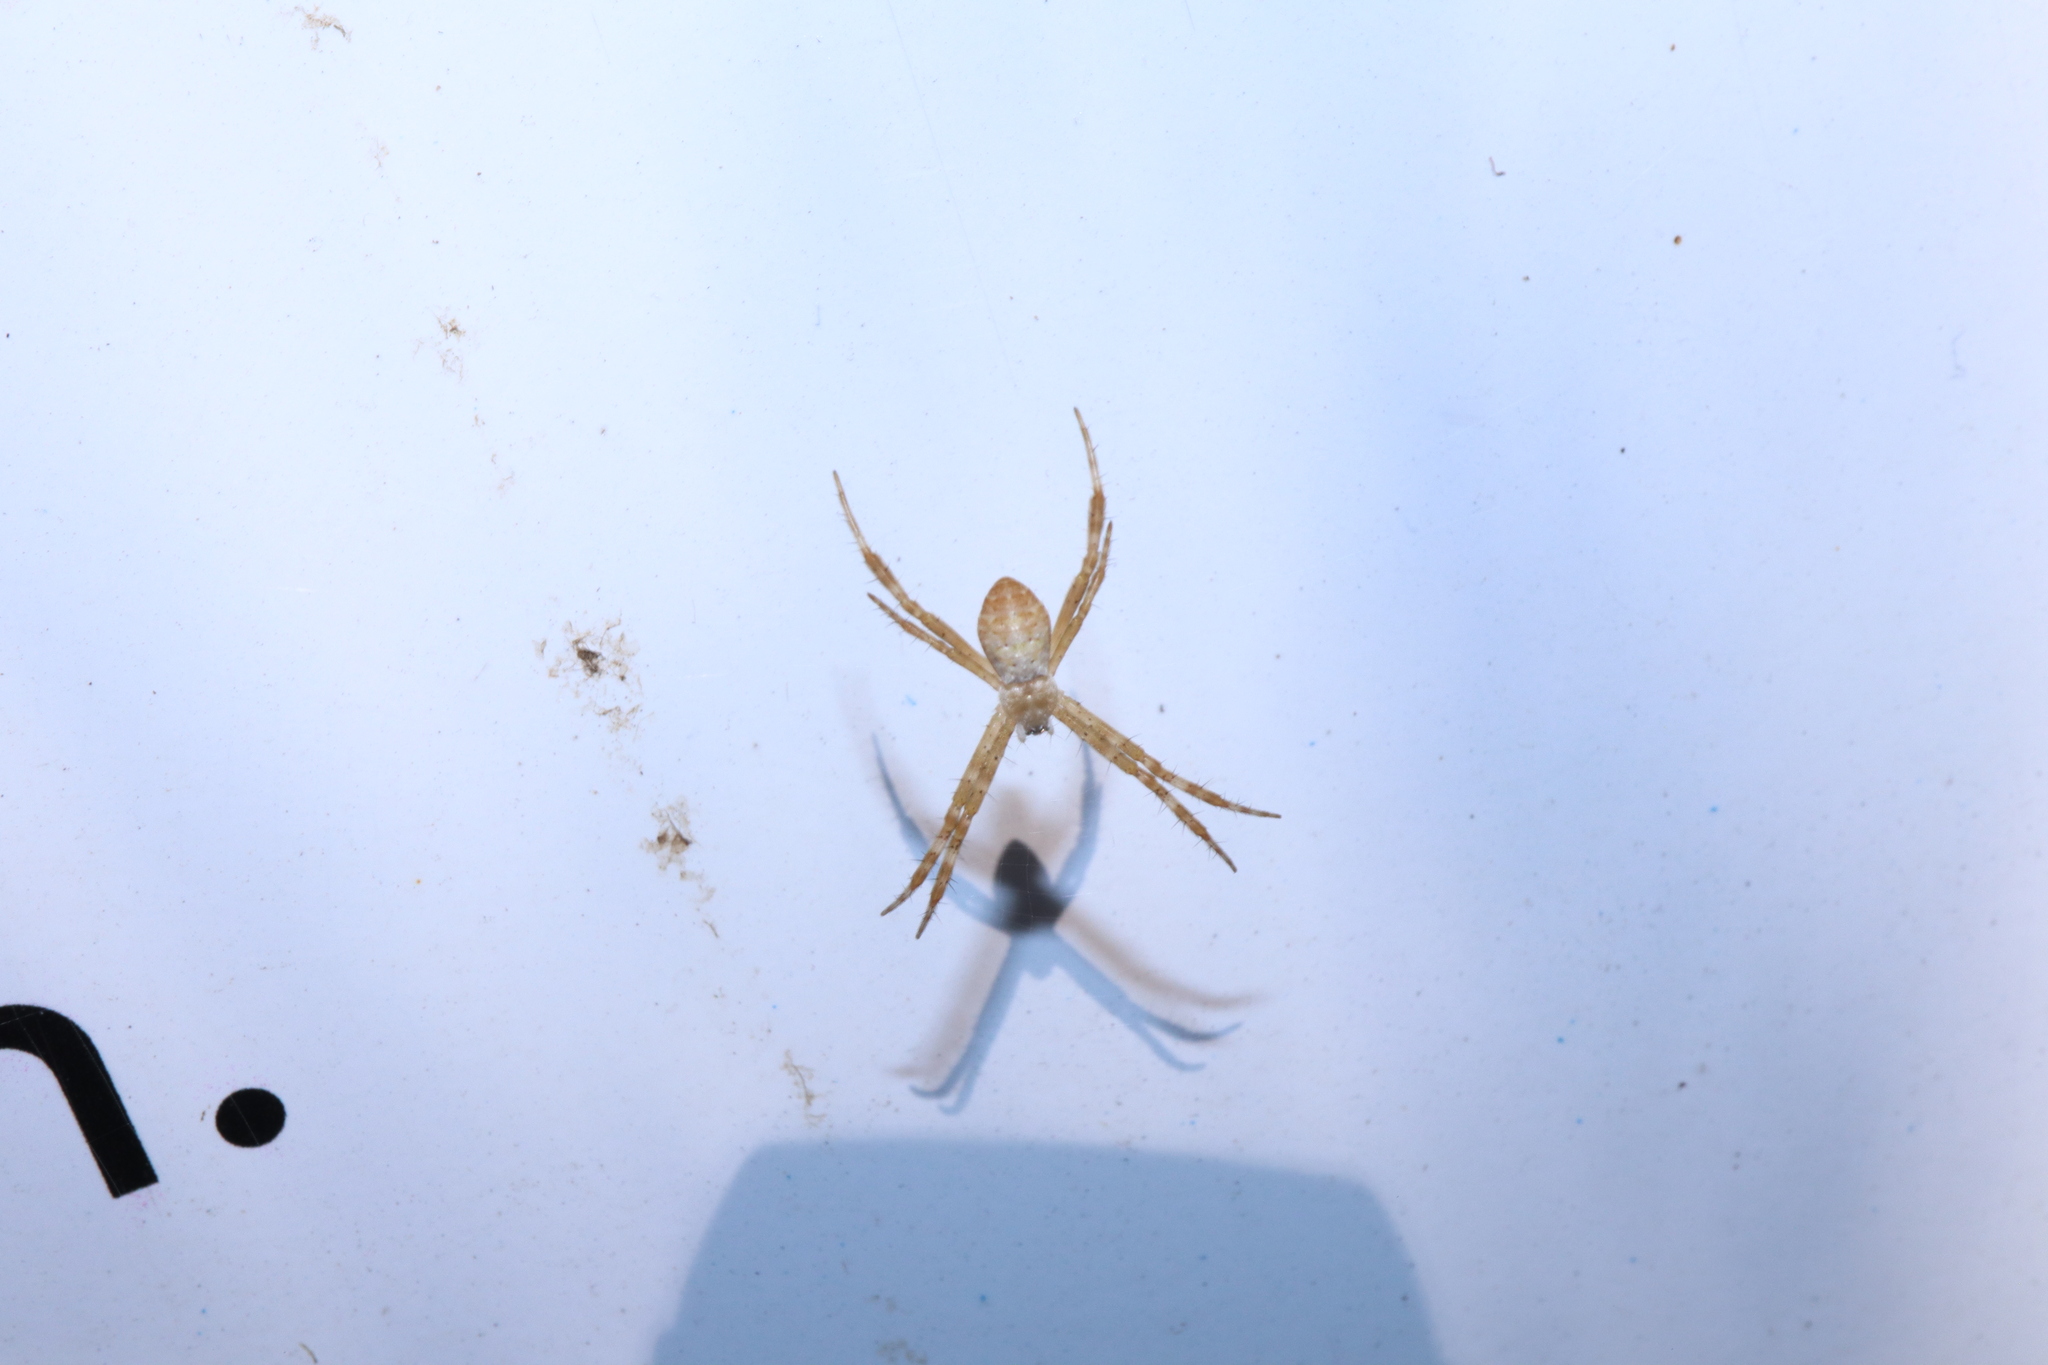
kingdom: Animalia
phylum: Arthropoda
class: Arachnida
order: Araneae
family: Araneidae
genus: Argiope
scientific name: Argiope keyserlingi
